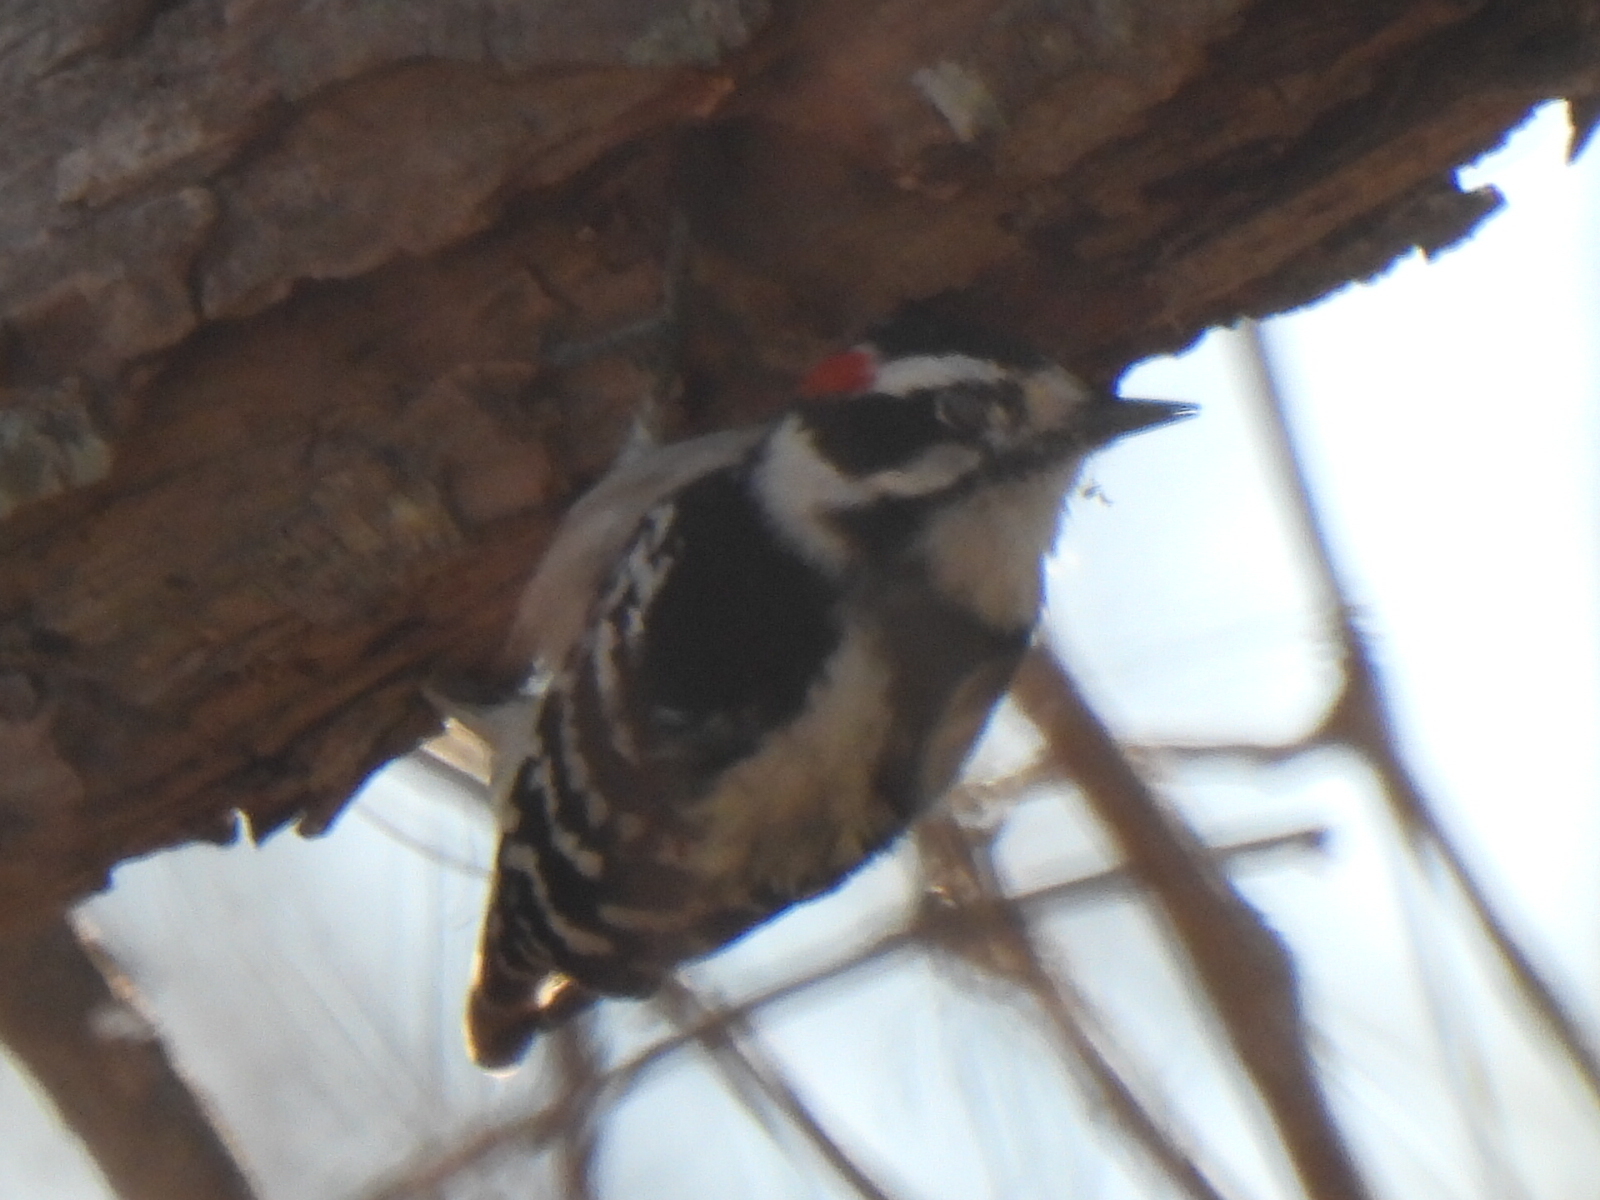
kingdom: Animalia
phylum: Chordata
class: Aves
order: Piciformes
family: Picidae
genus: Dryobates
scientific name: Dryobates pubescens
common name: Downy woodpecker
